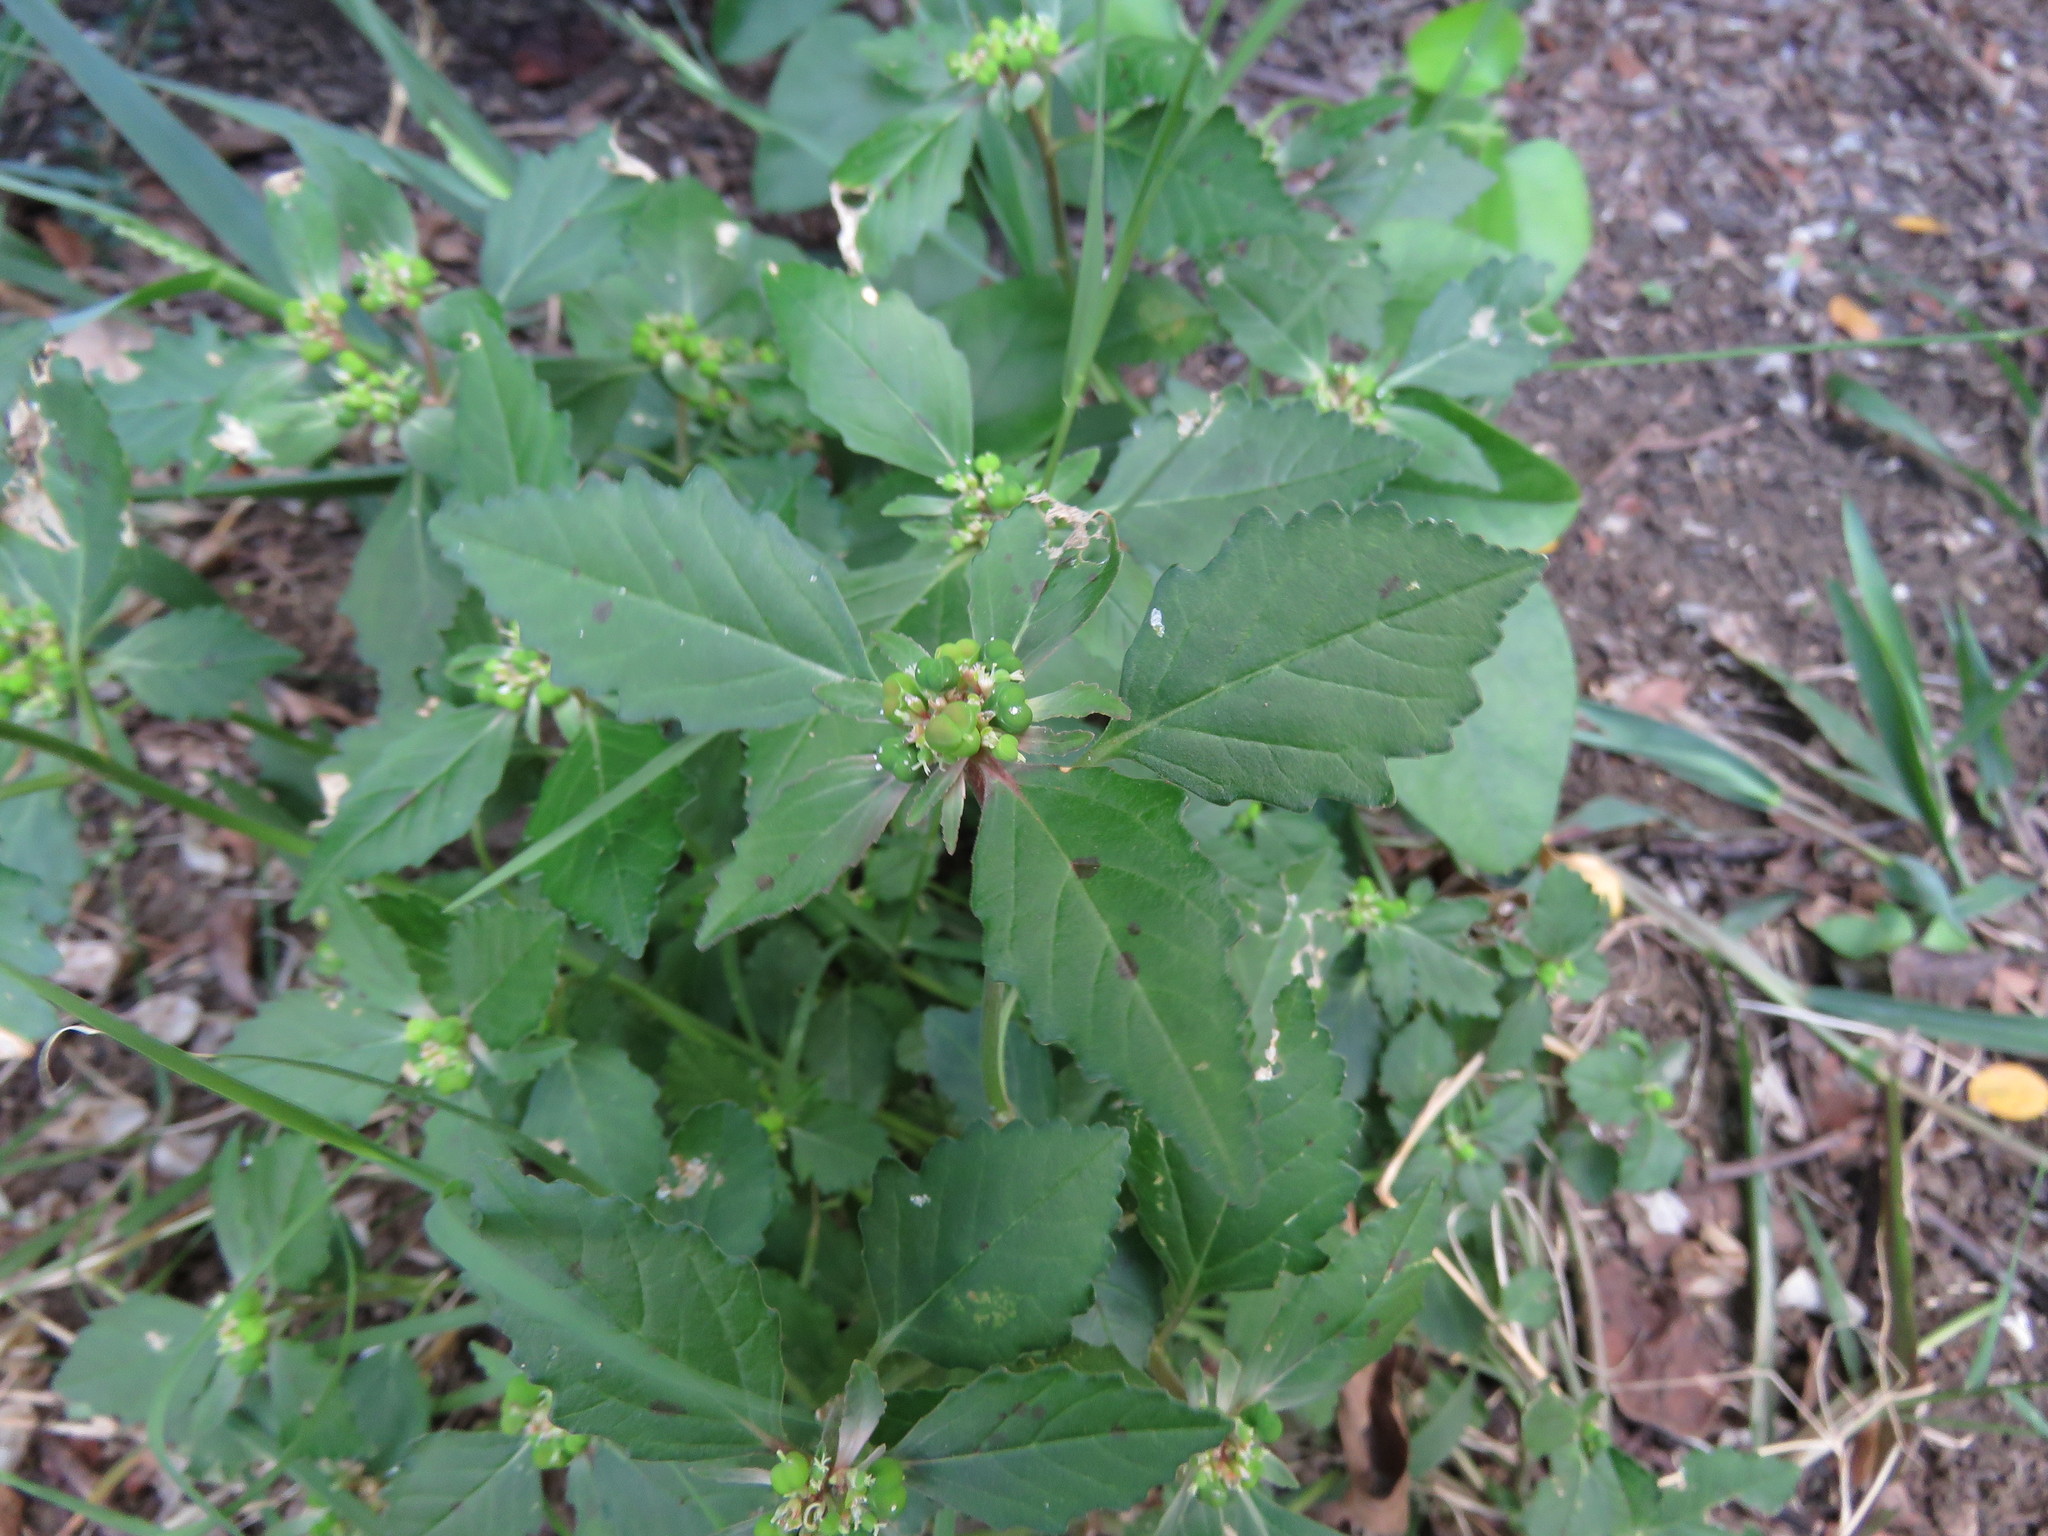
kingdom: Plantae
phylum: Tracheophyta
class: Magnoliopsida
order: Malpighiales
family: Euphorbiaceae
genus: Euphorbia
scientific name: Euphorbia dentata
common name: Dentate spurge
